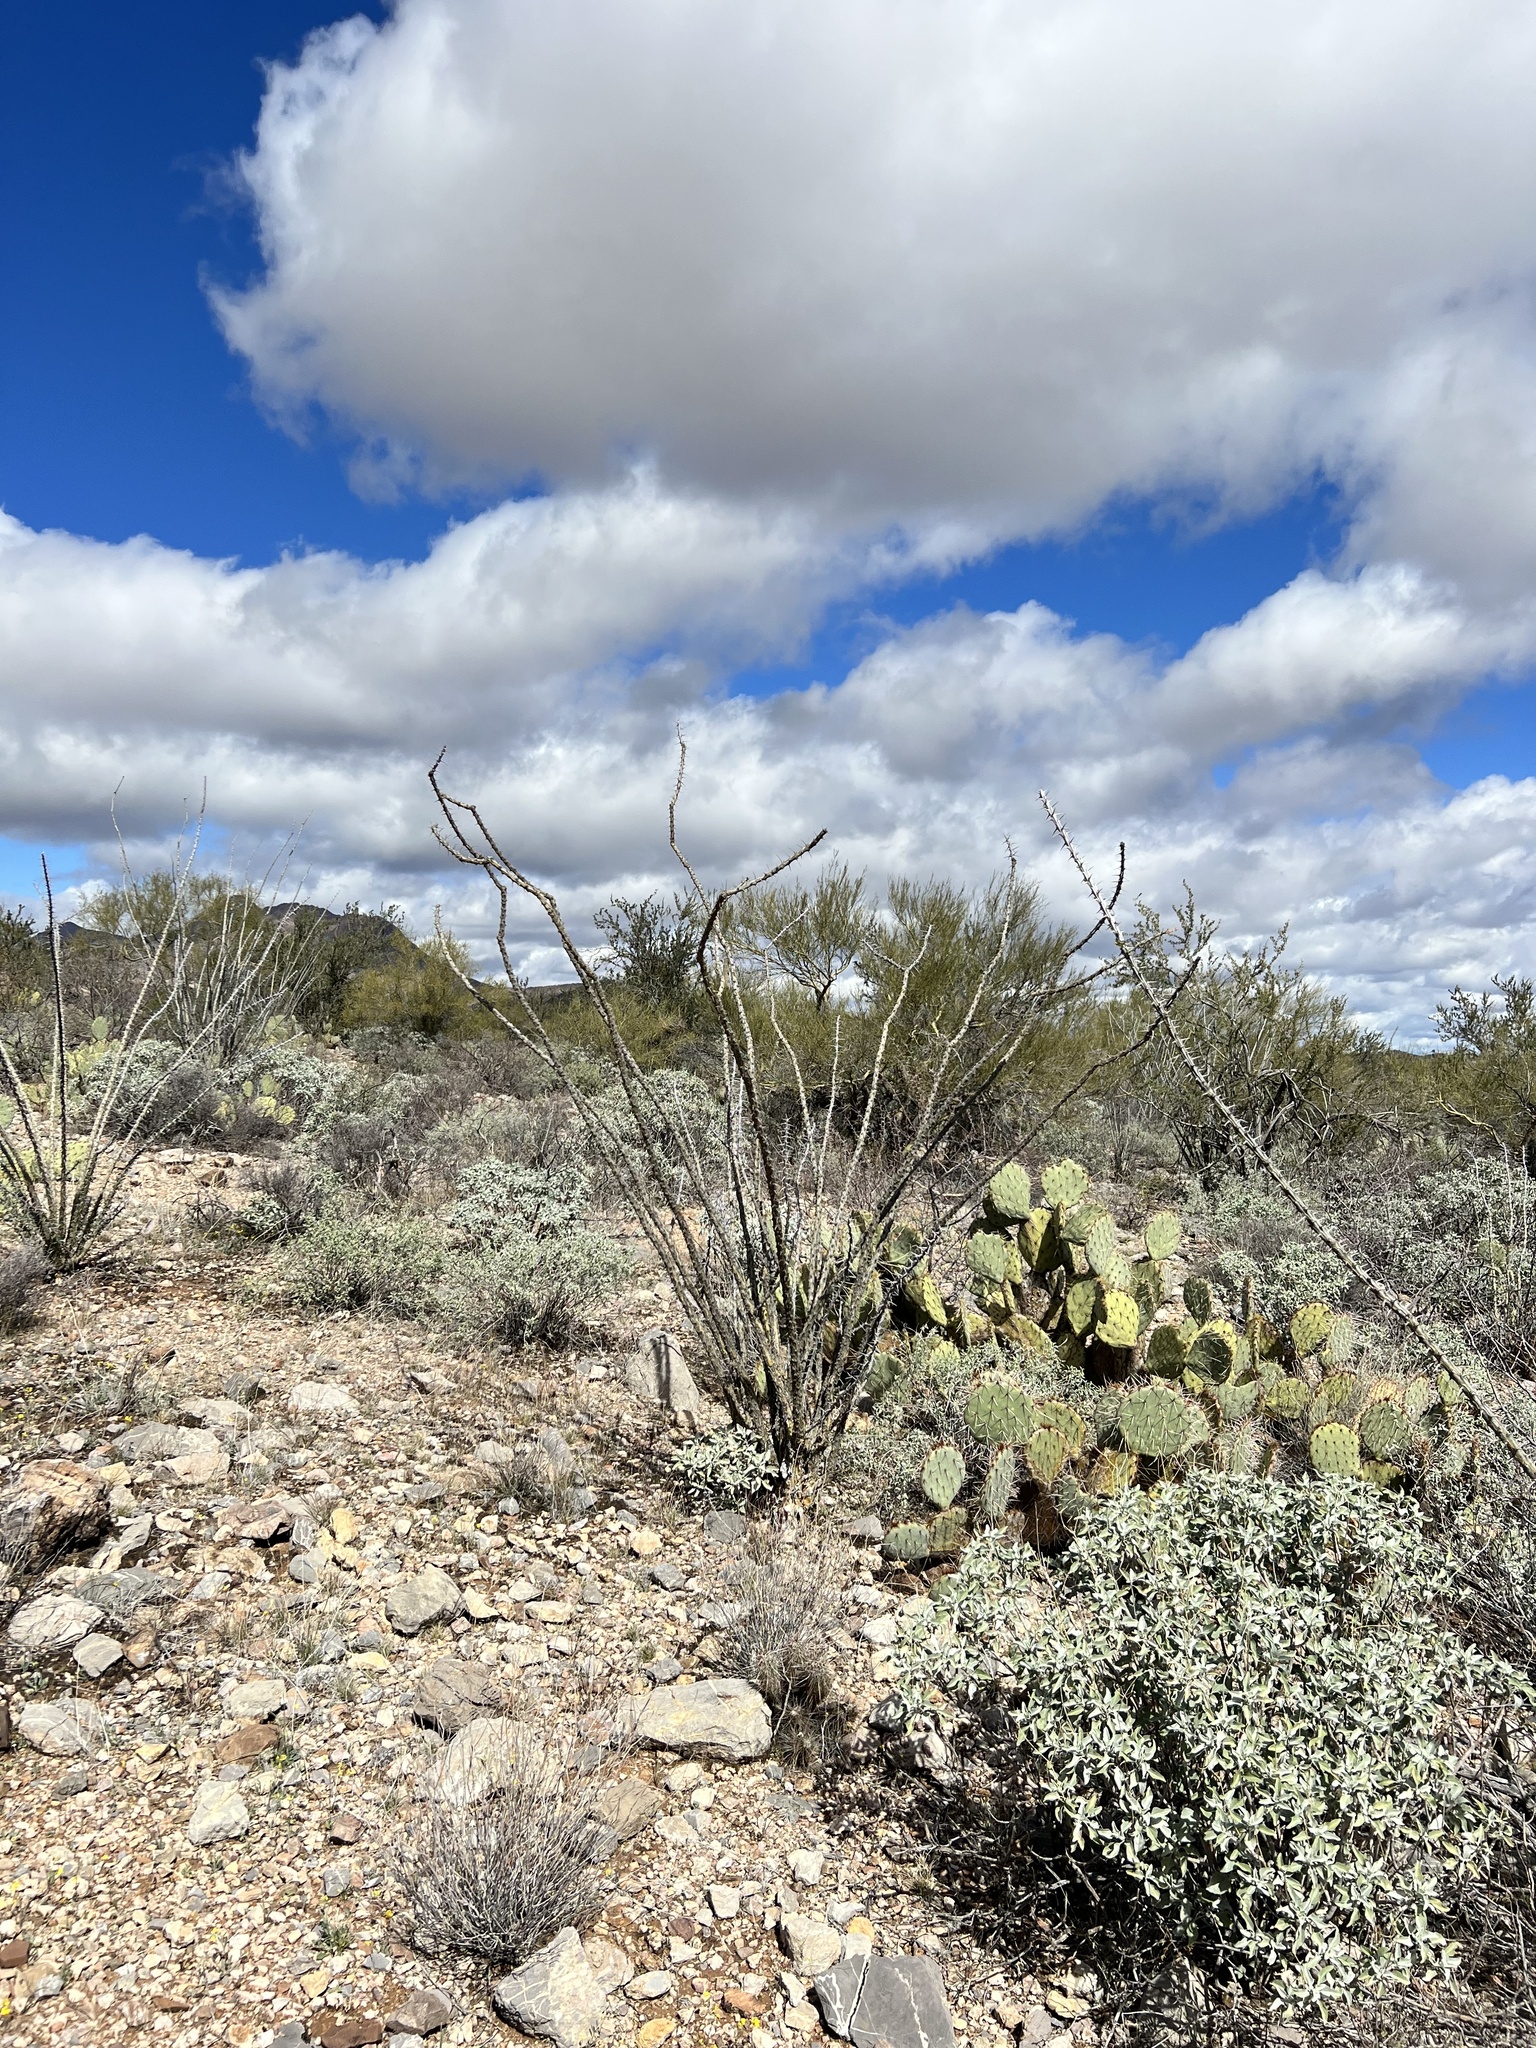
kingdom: Plantae
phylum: Tracheophyta
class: Magnoliopsida
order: Ericales
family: Fouquieriaceae
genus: Fouquieria
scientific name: Fouquieria splendens
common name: Vine-cactus
